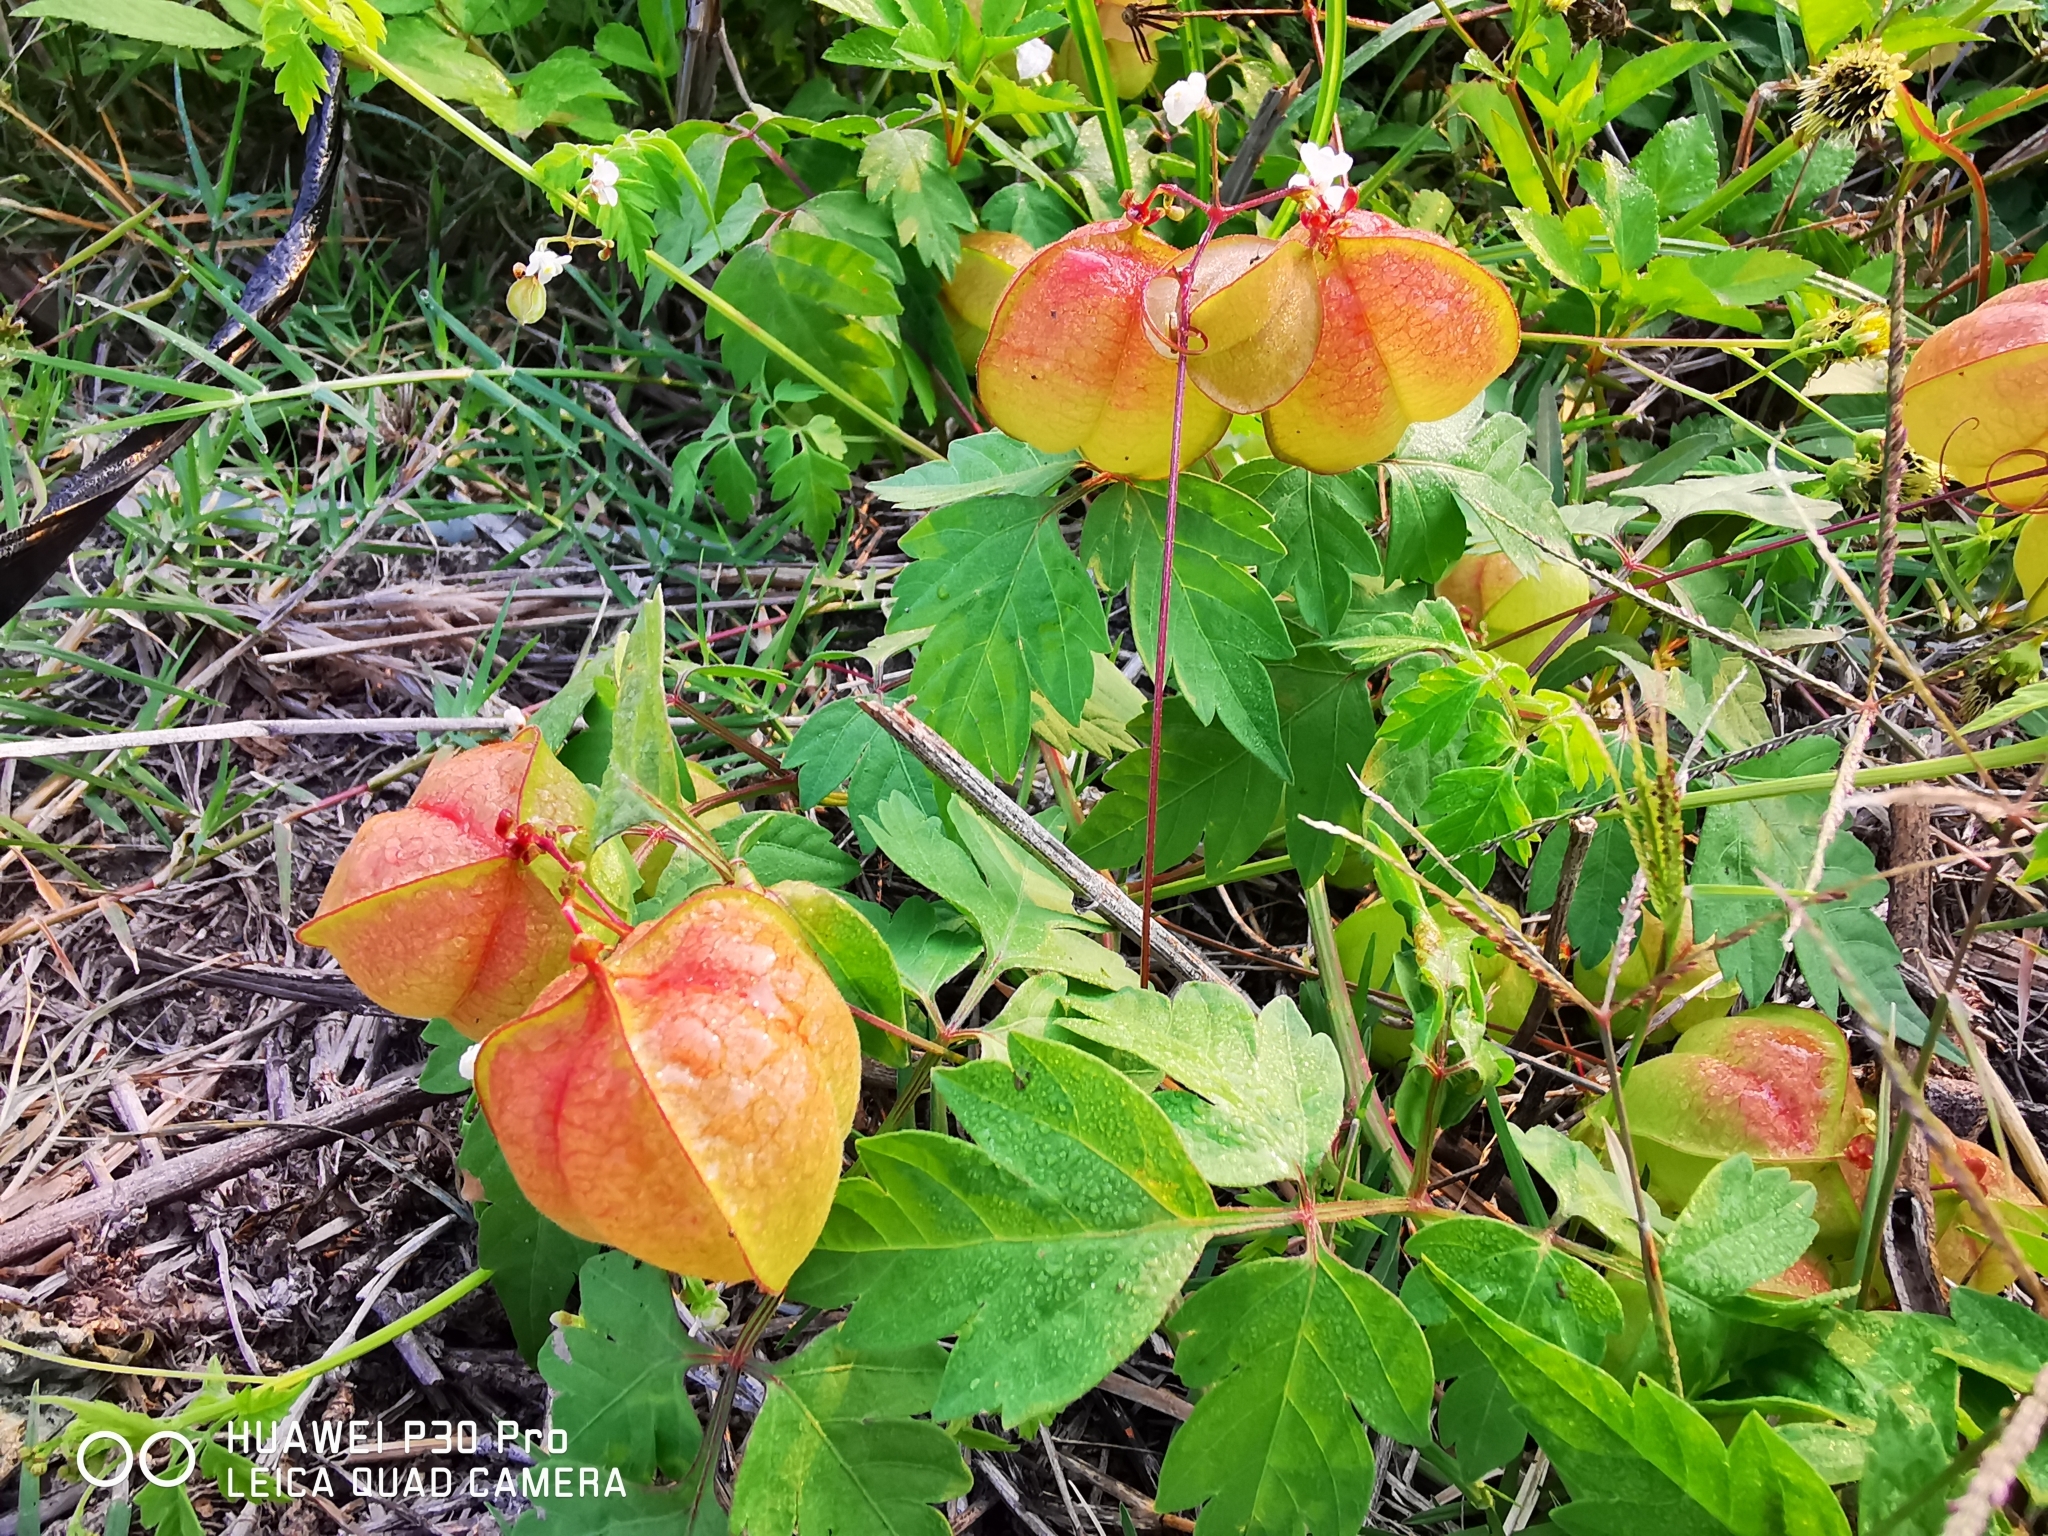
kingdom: Plantae
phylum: Tracheophyta
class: Magnoliopsida
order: Sapindales
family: Sapindaceae
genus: Cardiospermum
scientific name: Cardiospermum halicacabum
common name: Balloon vine
